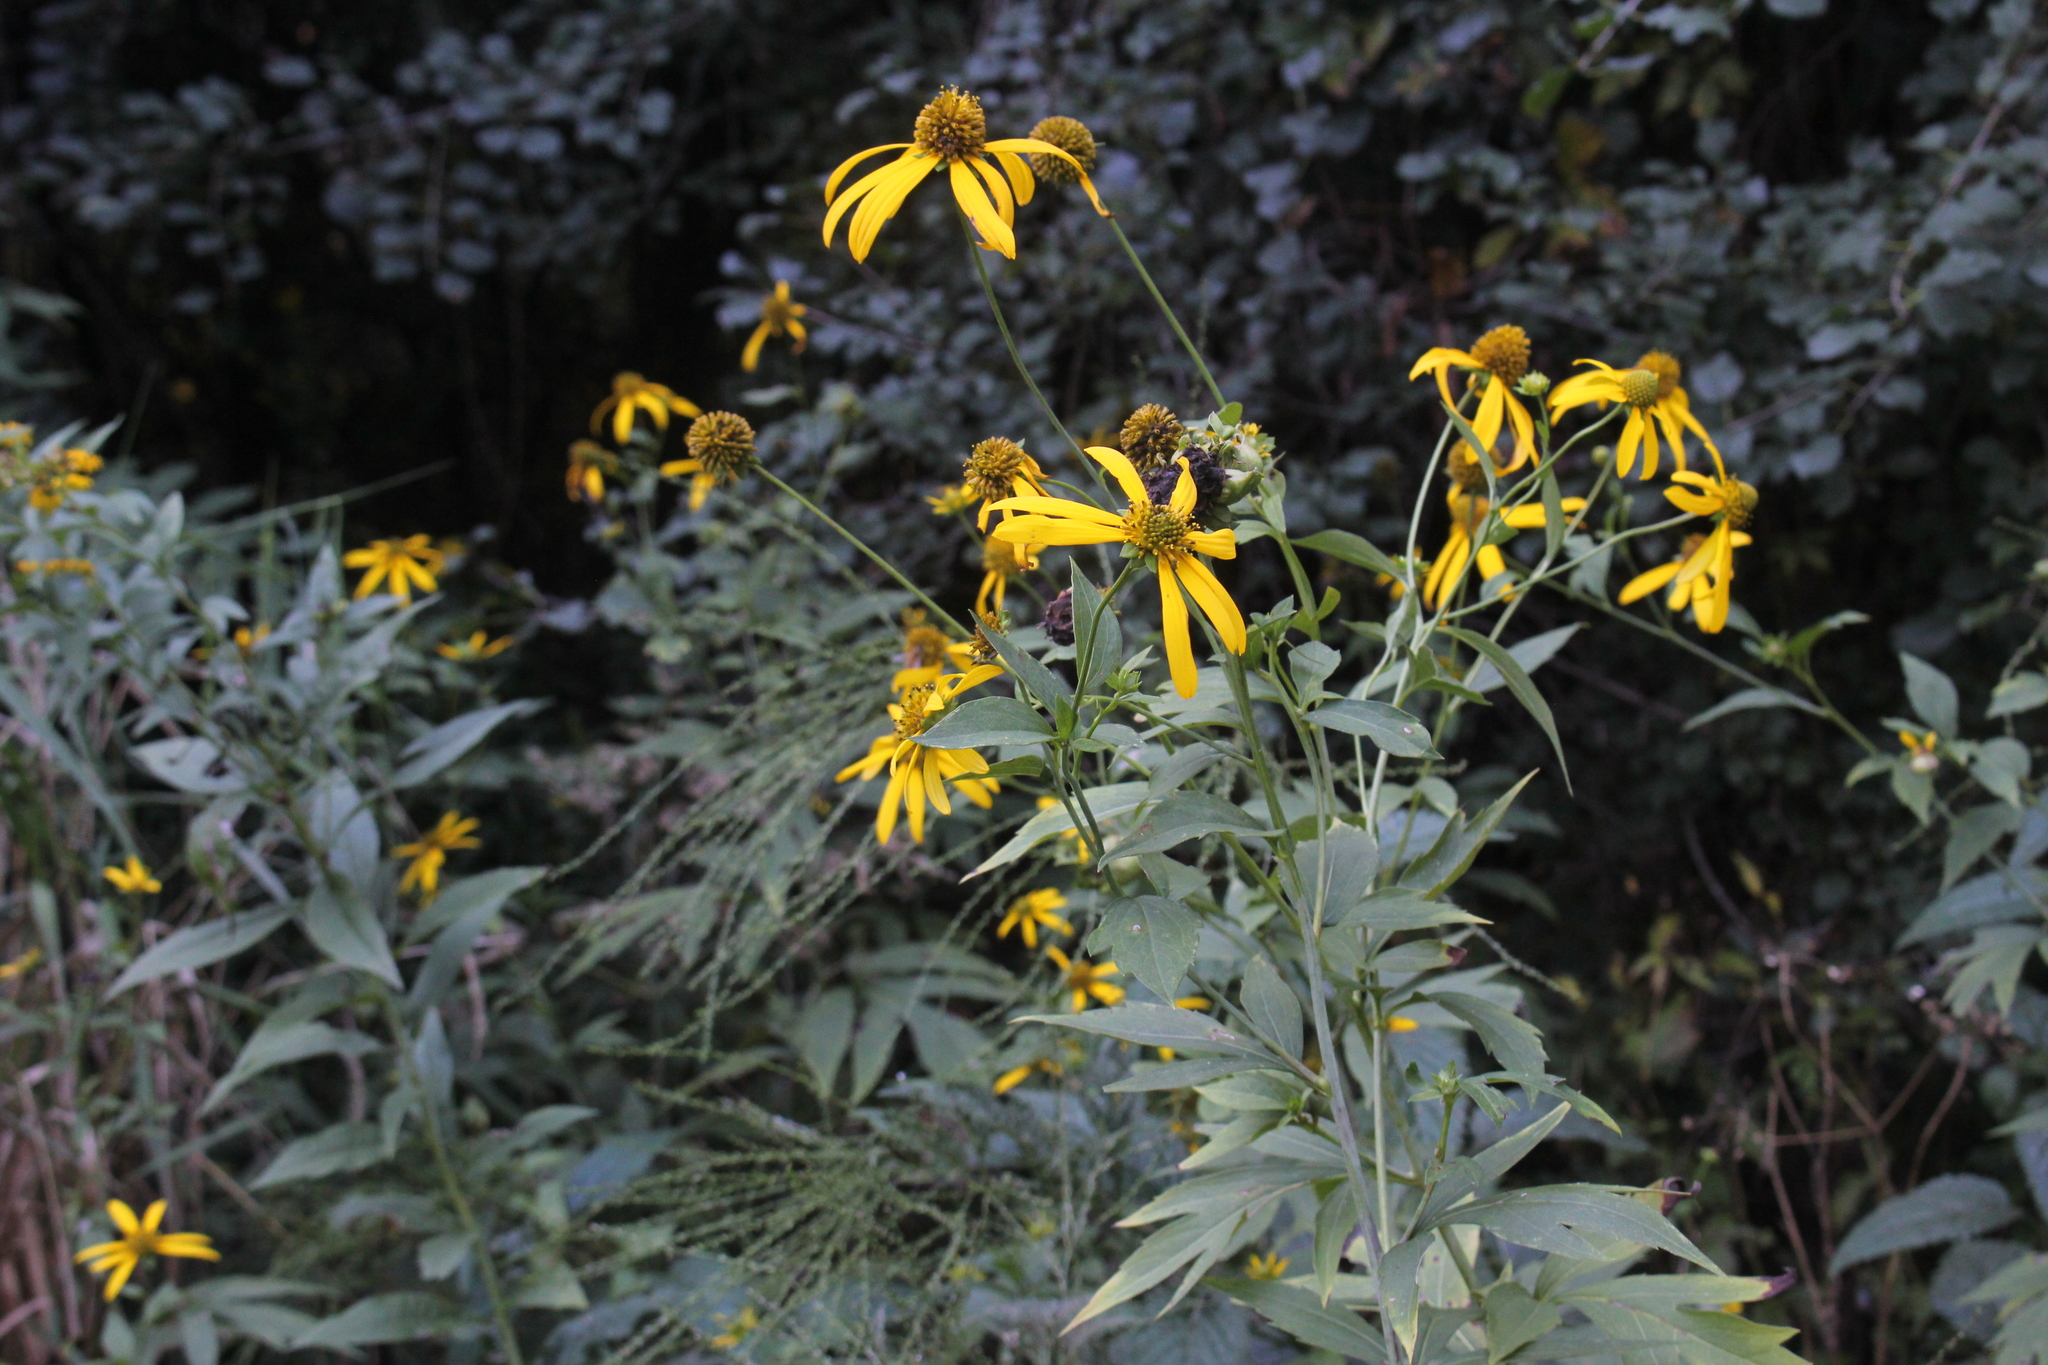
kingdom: Plantae
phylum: Tracheophyta
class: Magnoliopsida
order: Asterales
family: Asteraceae
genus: Rudbeckia
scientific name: Rudbeckia laciniata
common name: Coneflower
